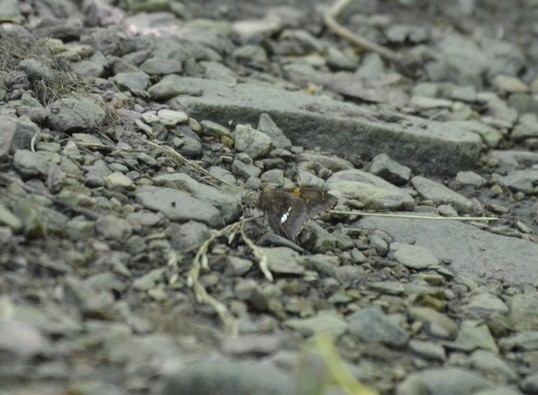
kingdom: Animalia
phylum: Arthropoda
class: Insecta
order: Lepidoptera
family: Hesperiidae
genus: Epargyreus
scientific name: Epargyreus tmolis
